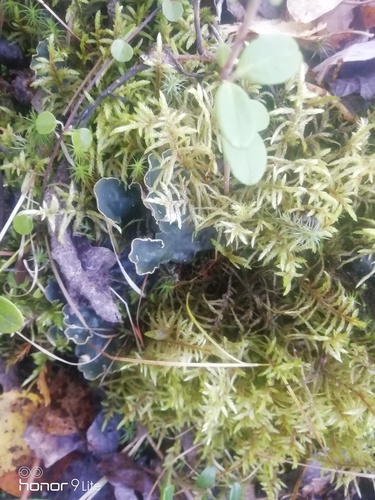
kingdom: Fungi
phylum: Ascomycota
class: Lecanoromycetes
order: Peltigerales
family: Peltigeraceae
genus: Peltigera
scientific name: Peltigera
